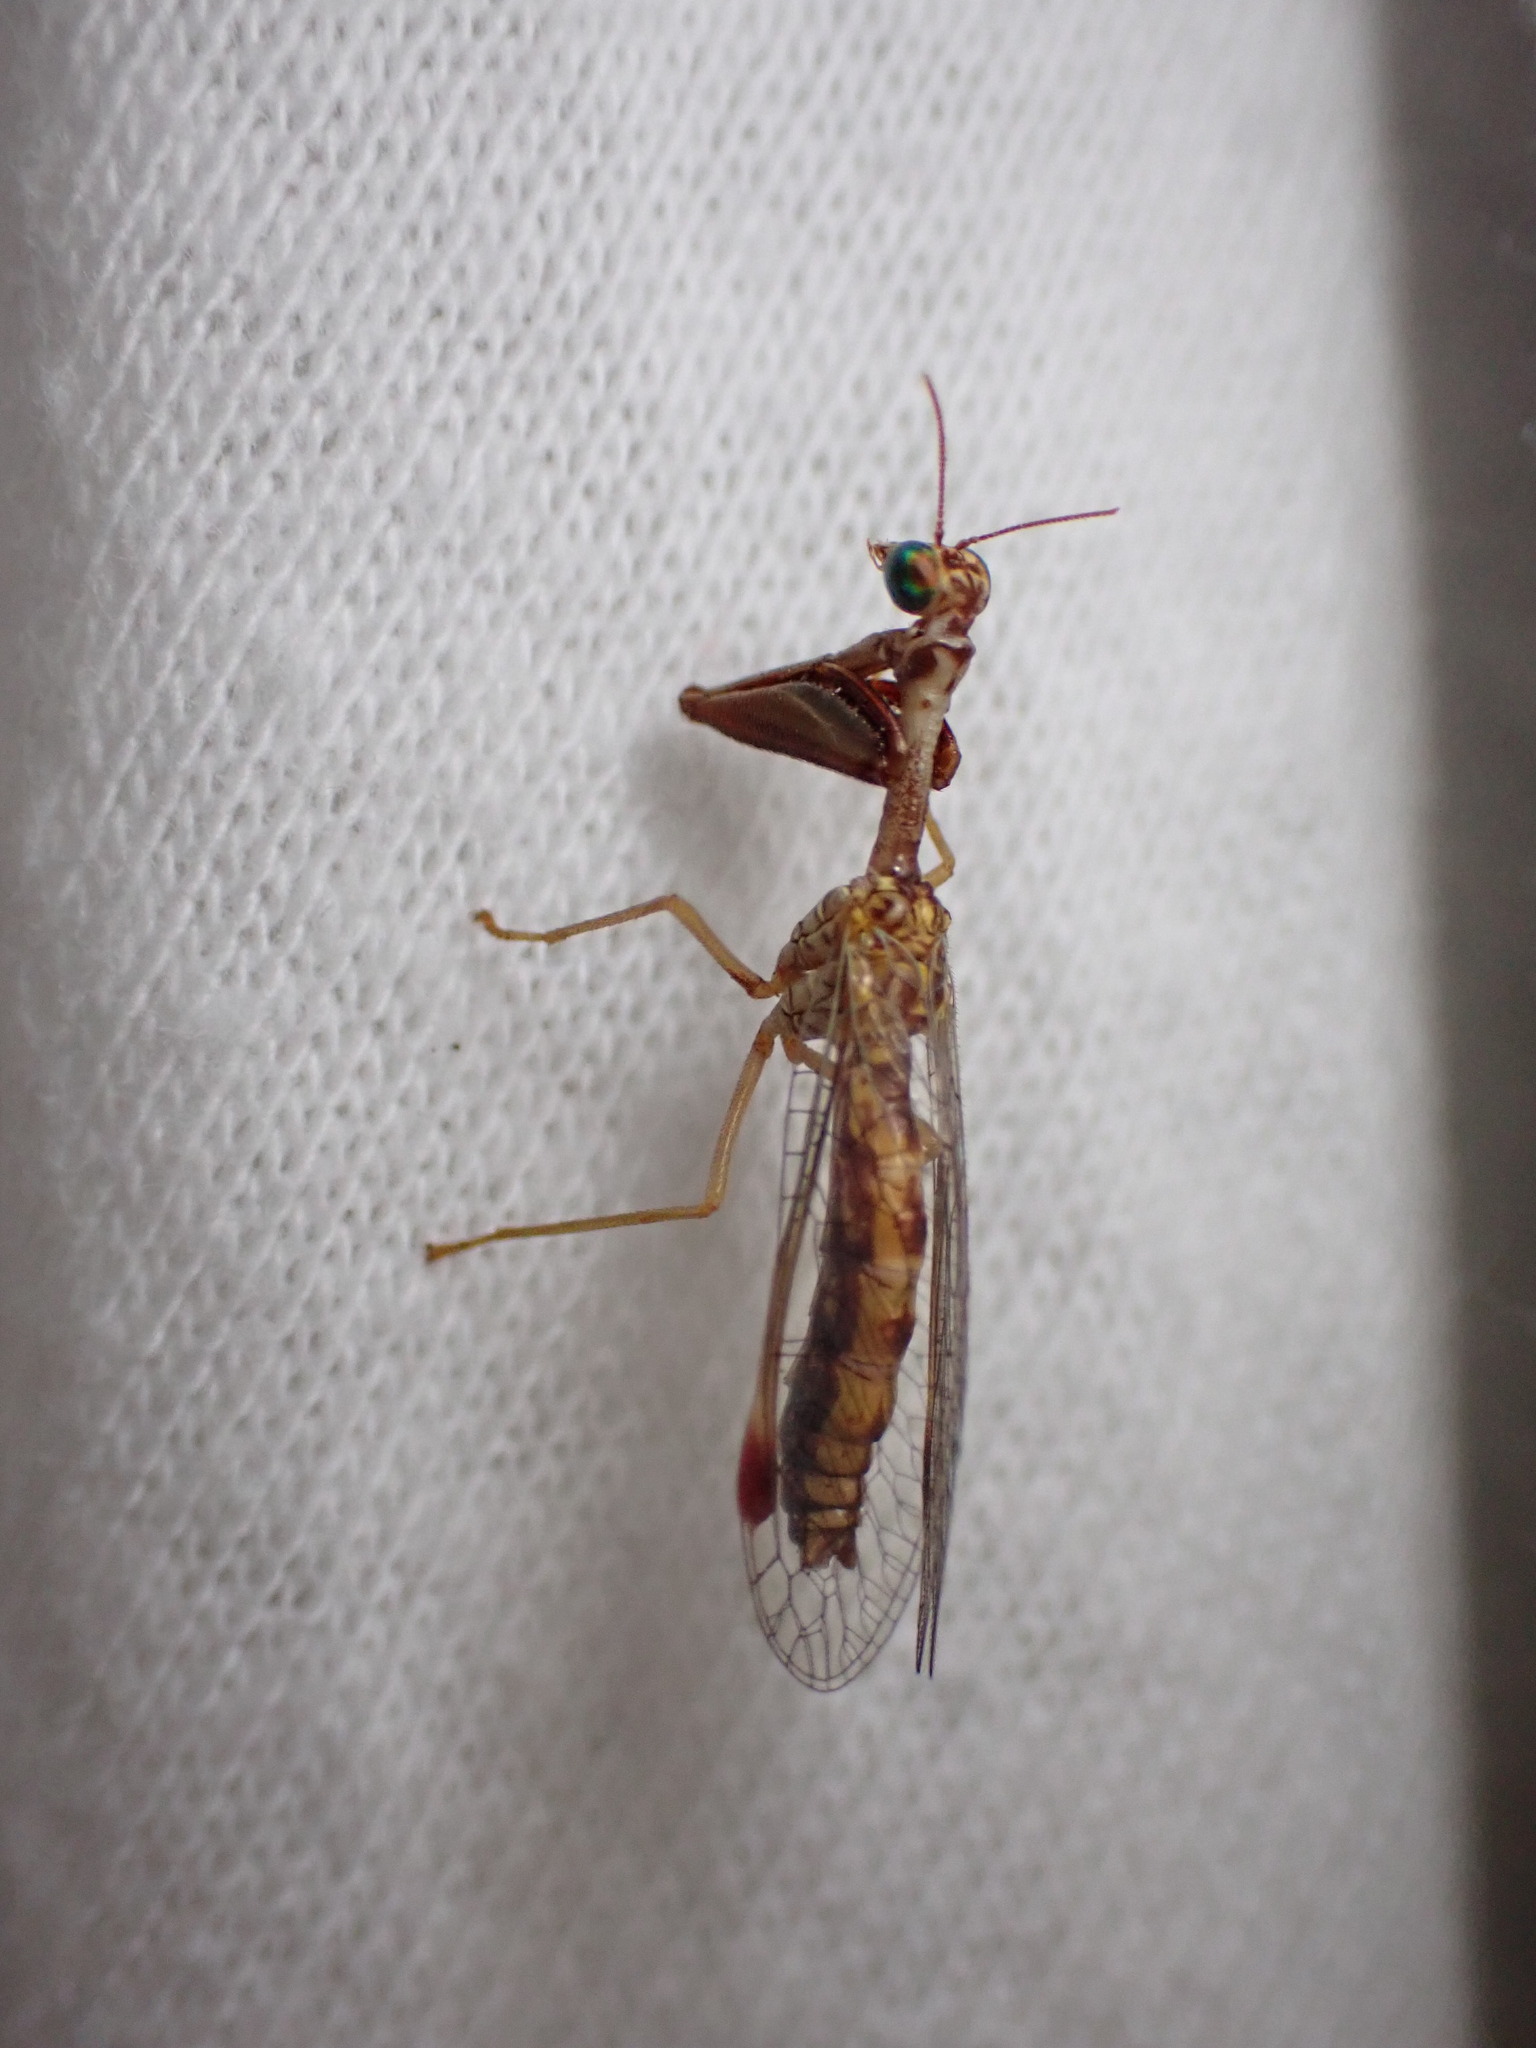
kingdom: Animalia
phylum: Arthropoda
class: Insecta
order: Neuroptera
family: Mantispidae
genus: Mantispa
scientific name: Mantispa styriaca
